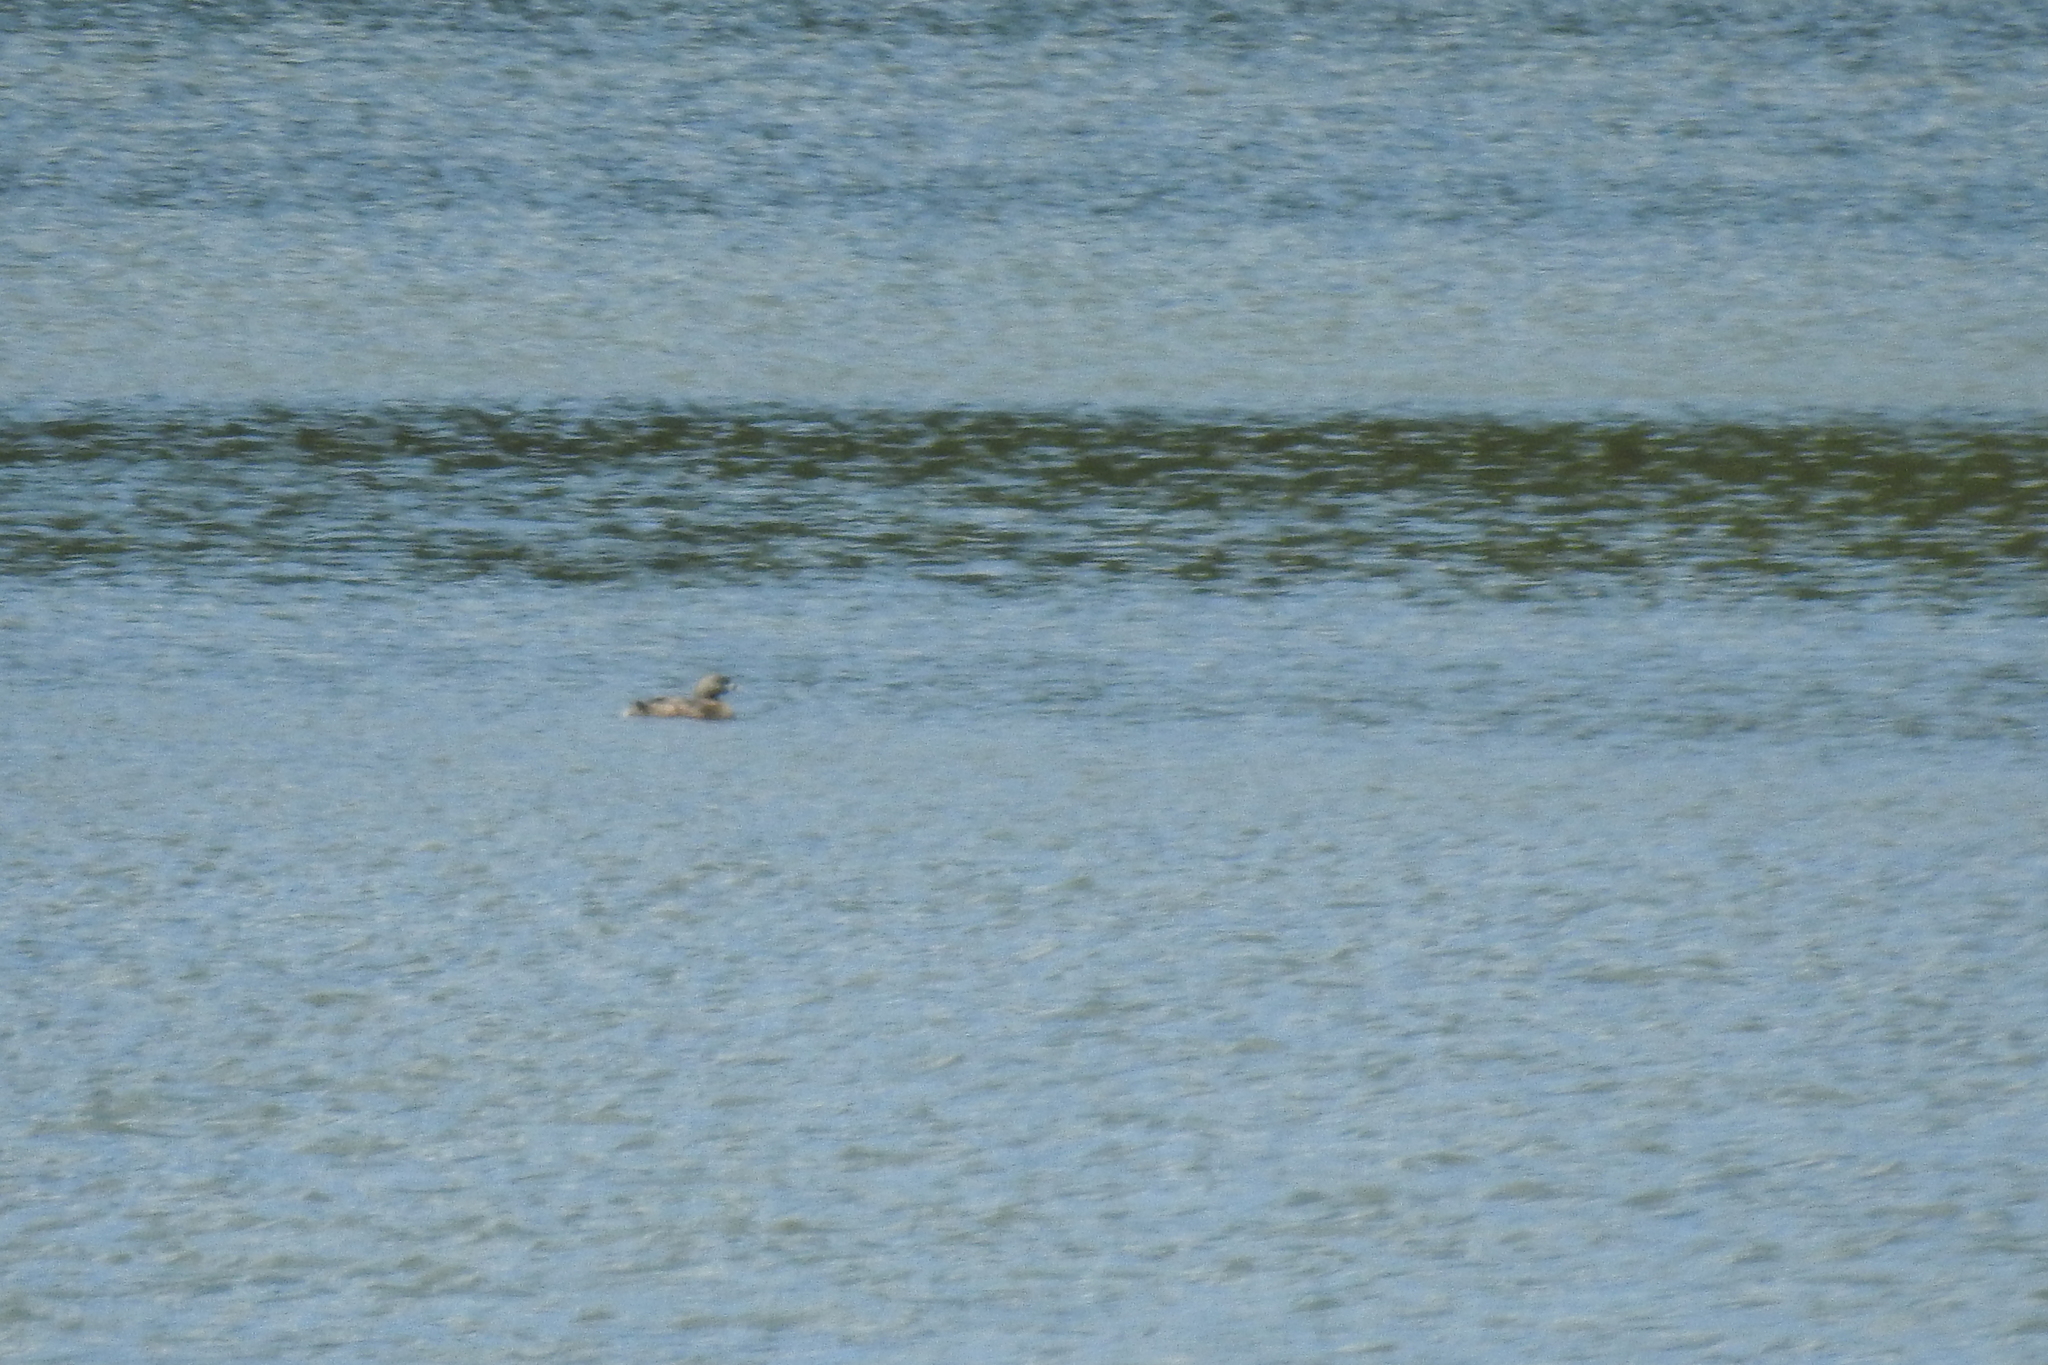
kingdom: Animalia
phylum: Chordata
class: Aves
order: Podicipediformes
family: Podicipedidae
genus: Podilymbus
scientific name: Podilymbus podiceps
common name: Pied-billed grebe
